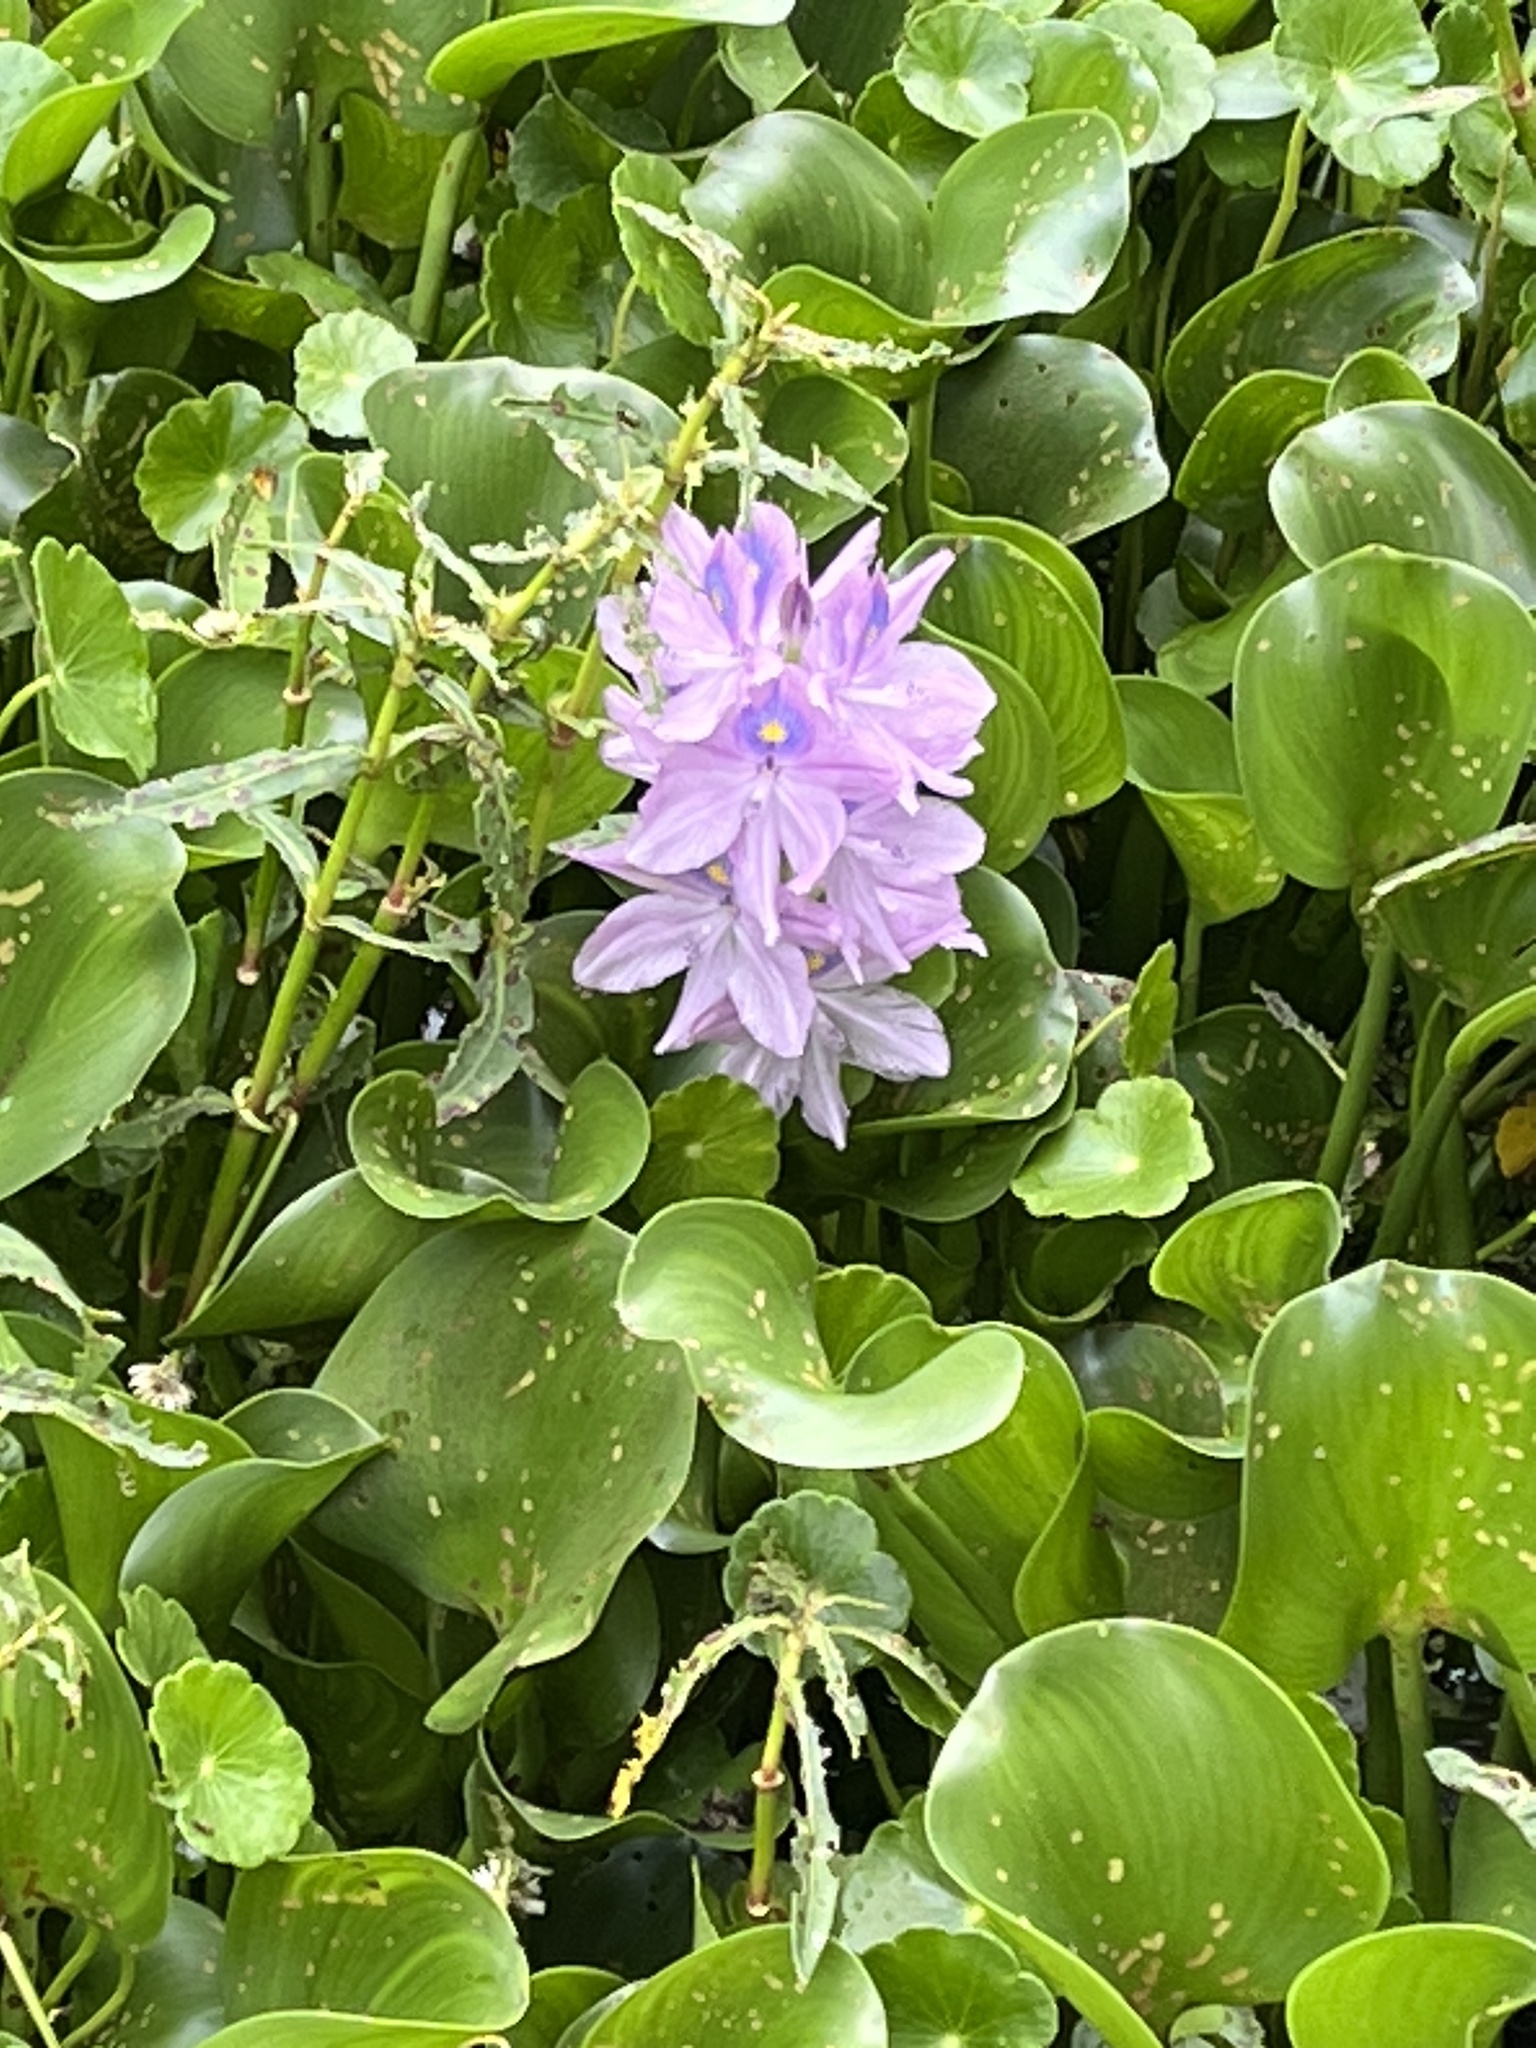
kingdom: Plantae
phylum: Tracheophyta
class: Liliopsida
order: Commelinales
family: Pontederiaceae
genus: Pontederia
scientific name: Pontederia crassipes
